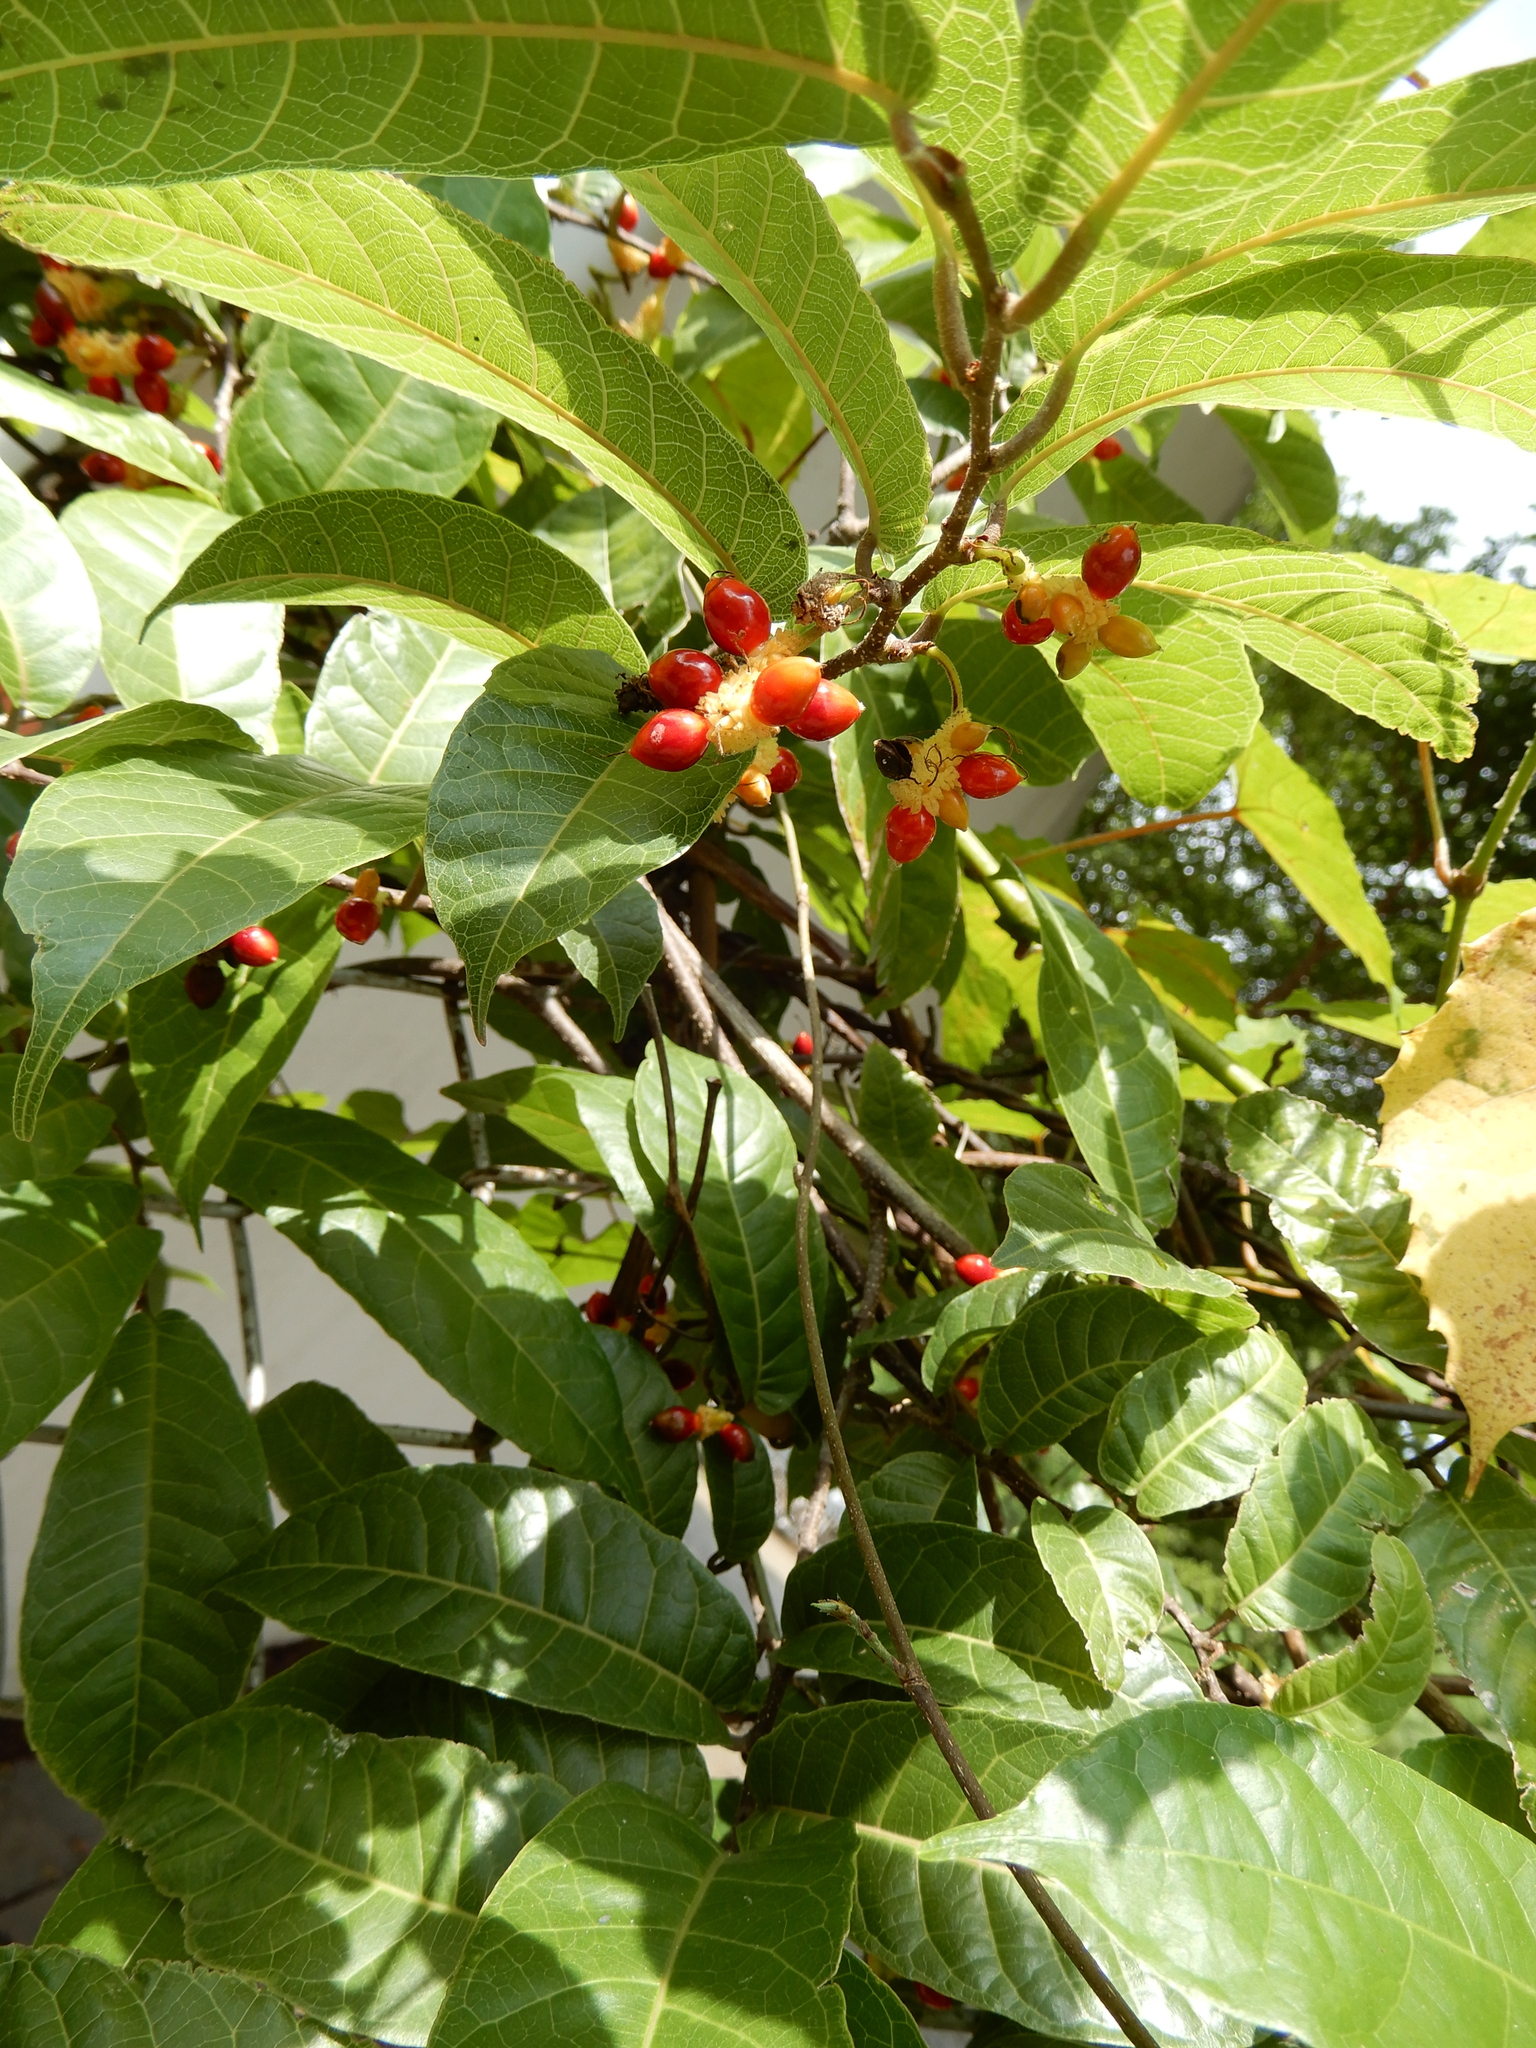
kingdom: Plantae
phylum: Tracheophyta
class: Magnoliopsida
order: Rosales
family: Moraceae
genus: Malaisia
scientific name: Malaisia scandens
